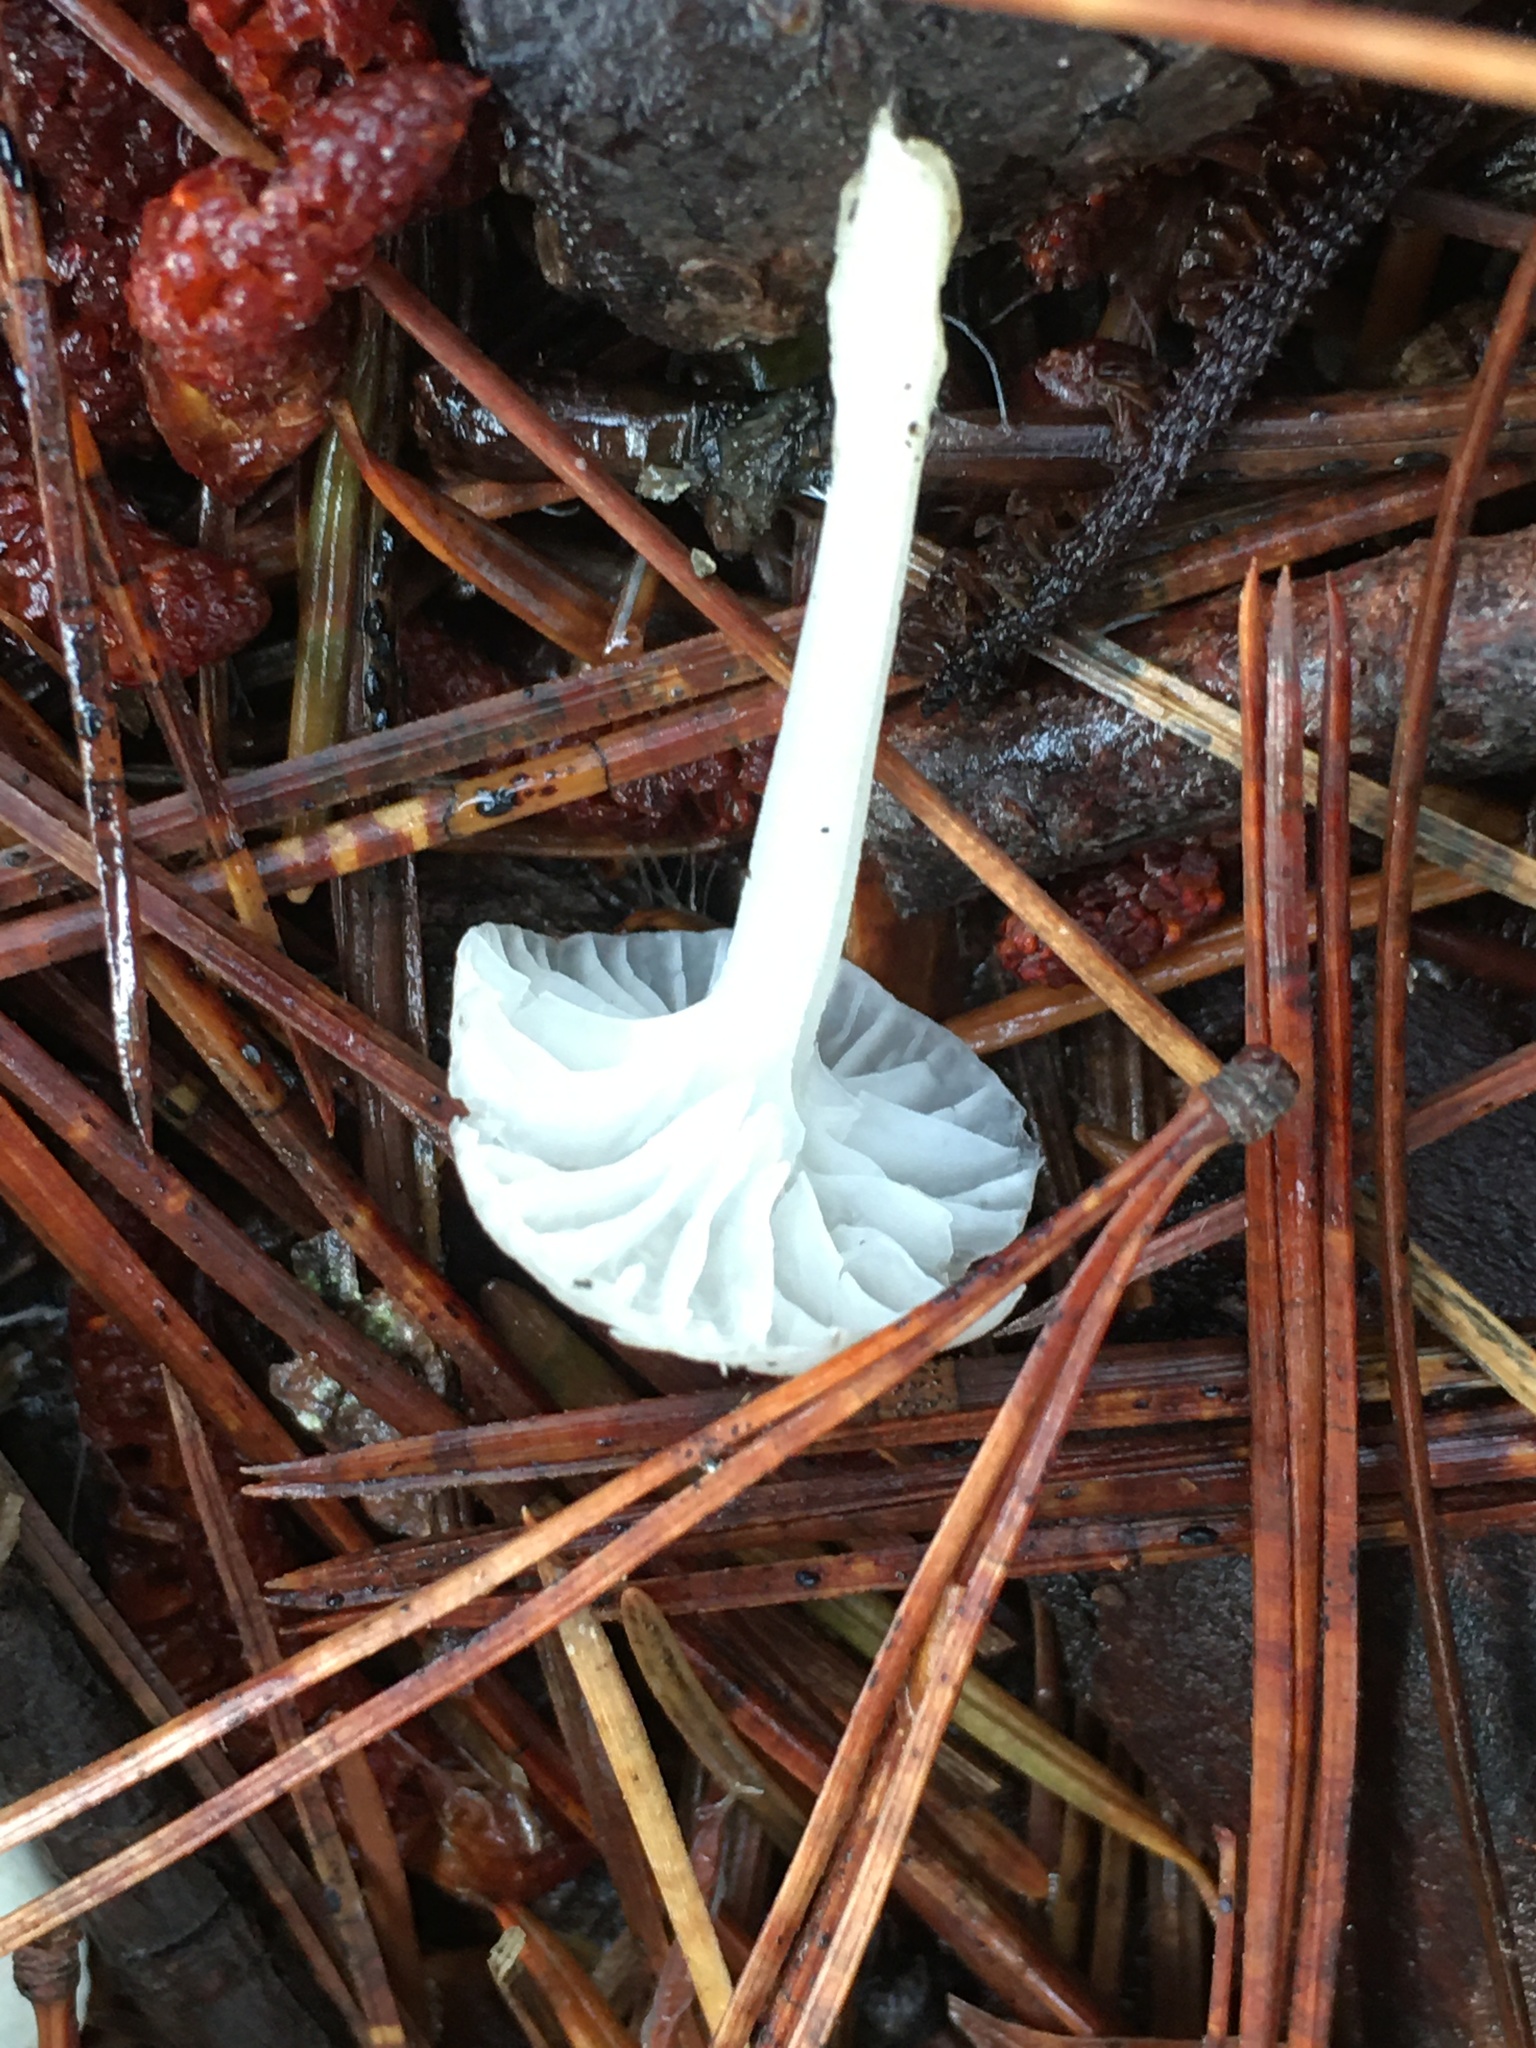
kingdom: Fungi
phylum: Basidiomycota
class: Agaricomycetes
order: Agaricales
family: Marasmiaceae
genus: Marasmius
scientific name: Marasmius calhouniae
